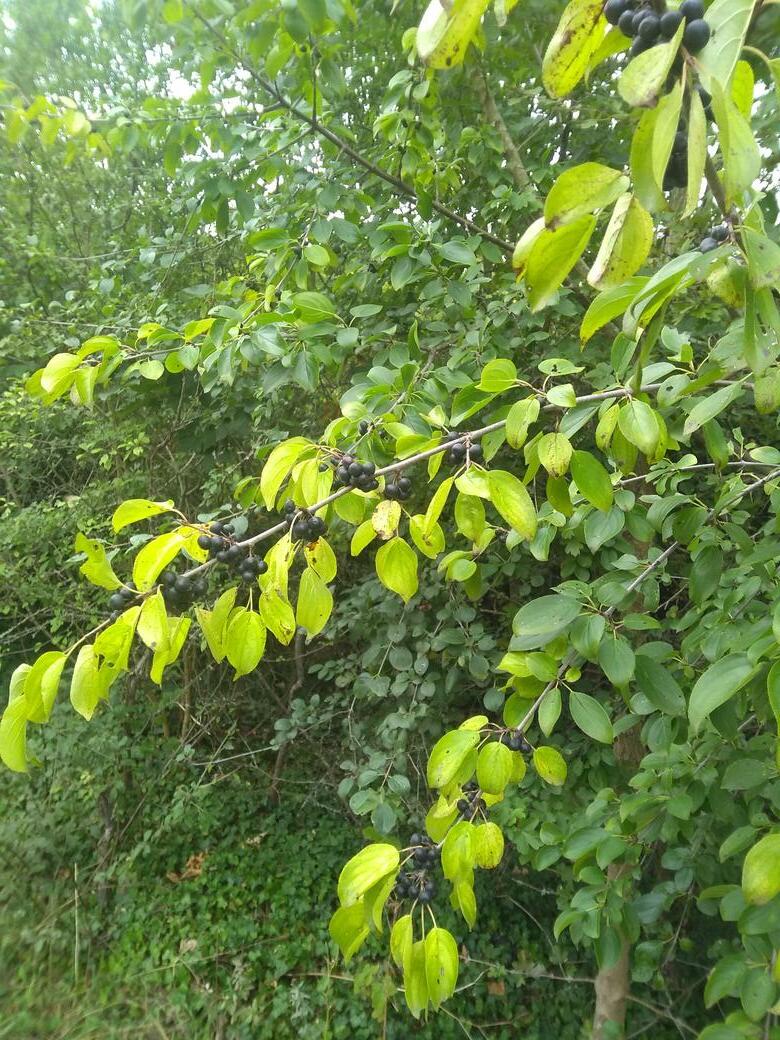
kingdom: Plantae
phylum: Tracheophyta
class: Magnoliopsida
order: Rosales
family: Rhamnaceae
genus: Rhamnus
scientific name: Rhamnus cathartica
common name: Common buckthorn
